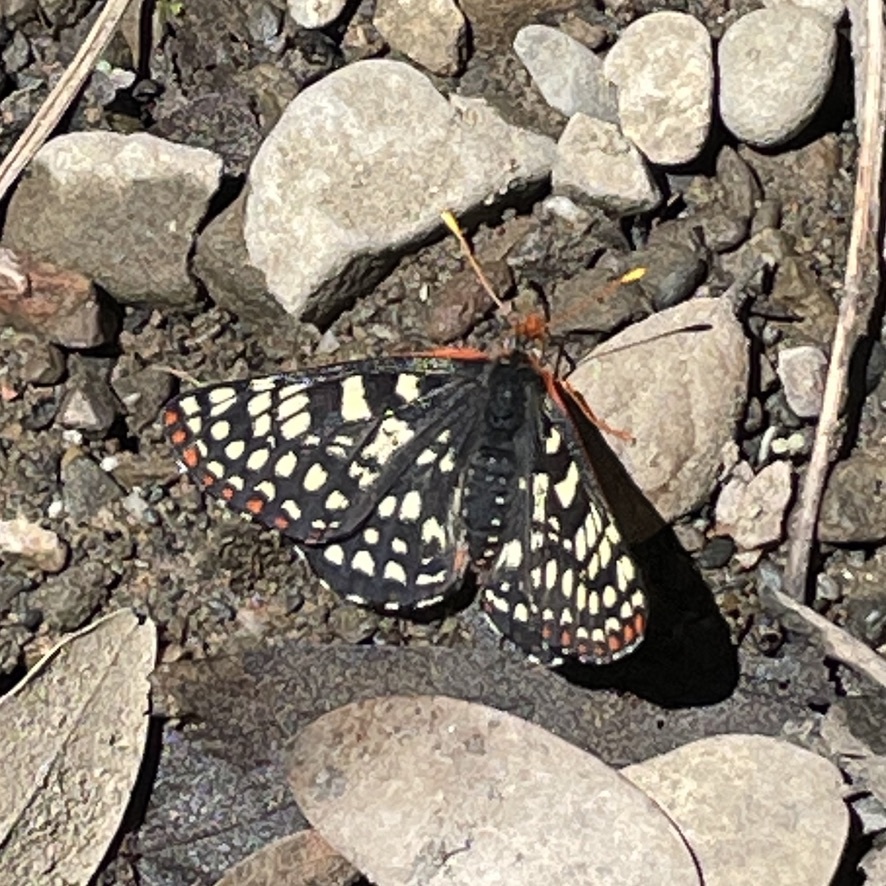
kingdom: Animalia
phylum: Arthropoda
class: Insecta
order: Lepidoptera
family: Nymphalidae
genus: Occidryas
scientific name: Occidryas chalcedona
